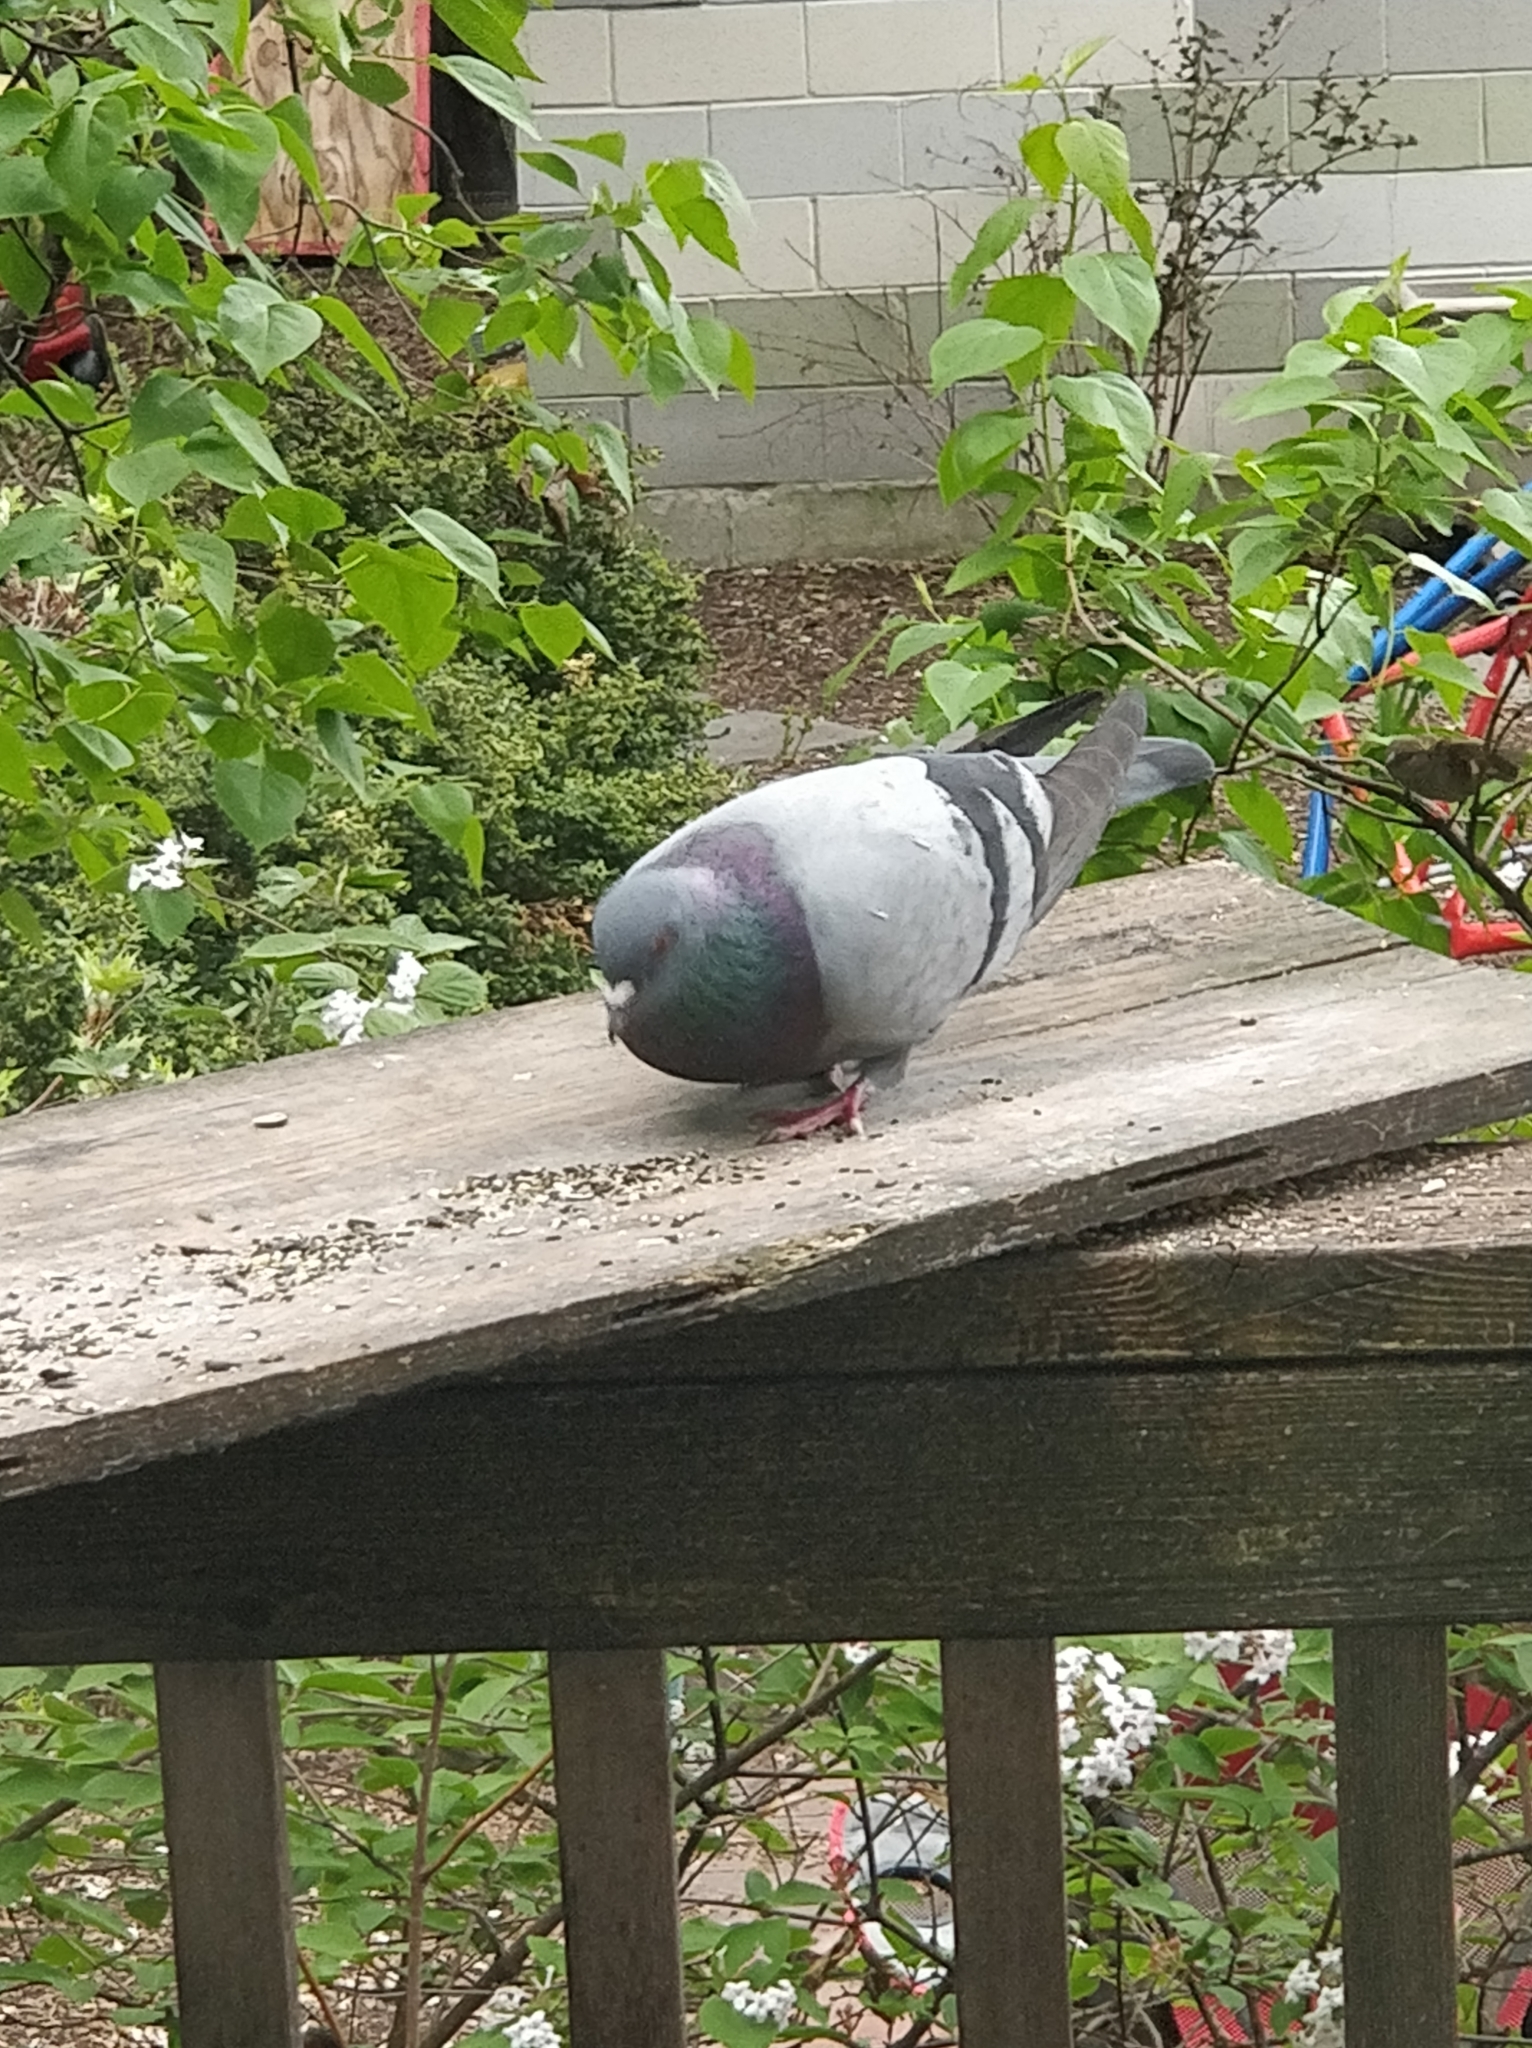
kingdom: Animalia
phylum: Chordata
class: Aves
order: Columbiformes
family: Columbidae
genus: Columba
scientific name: Columba livia
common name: Rock pigeon
